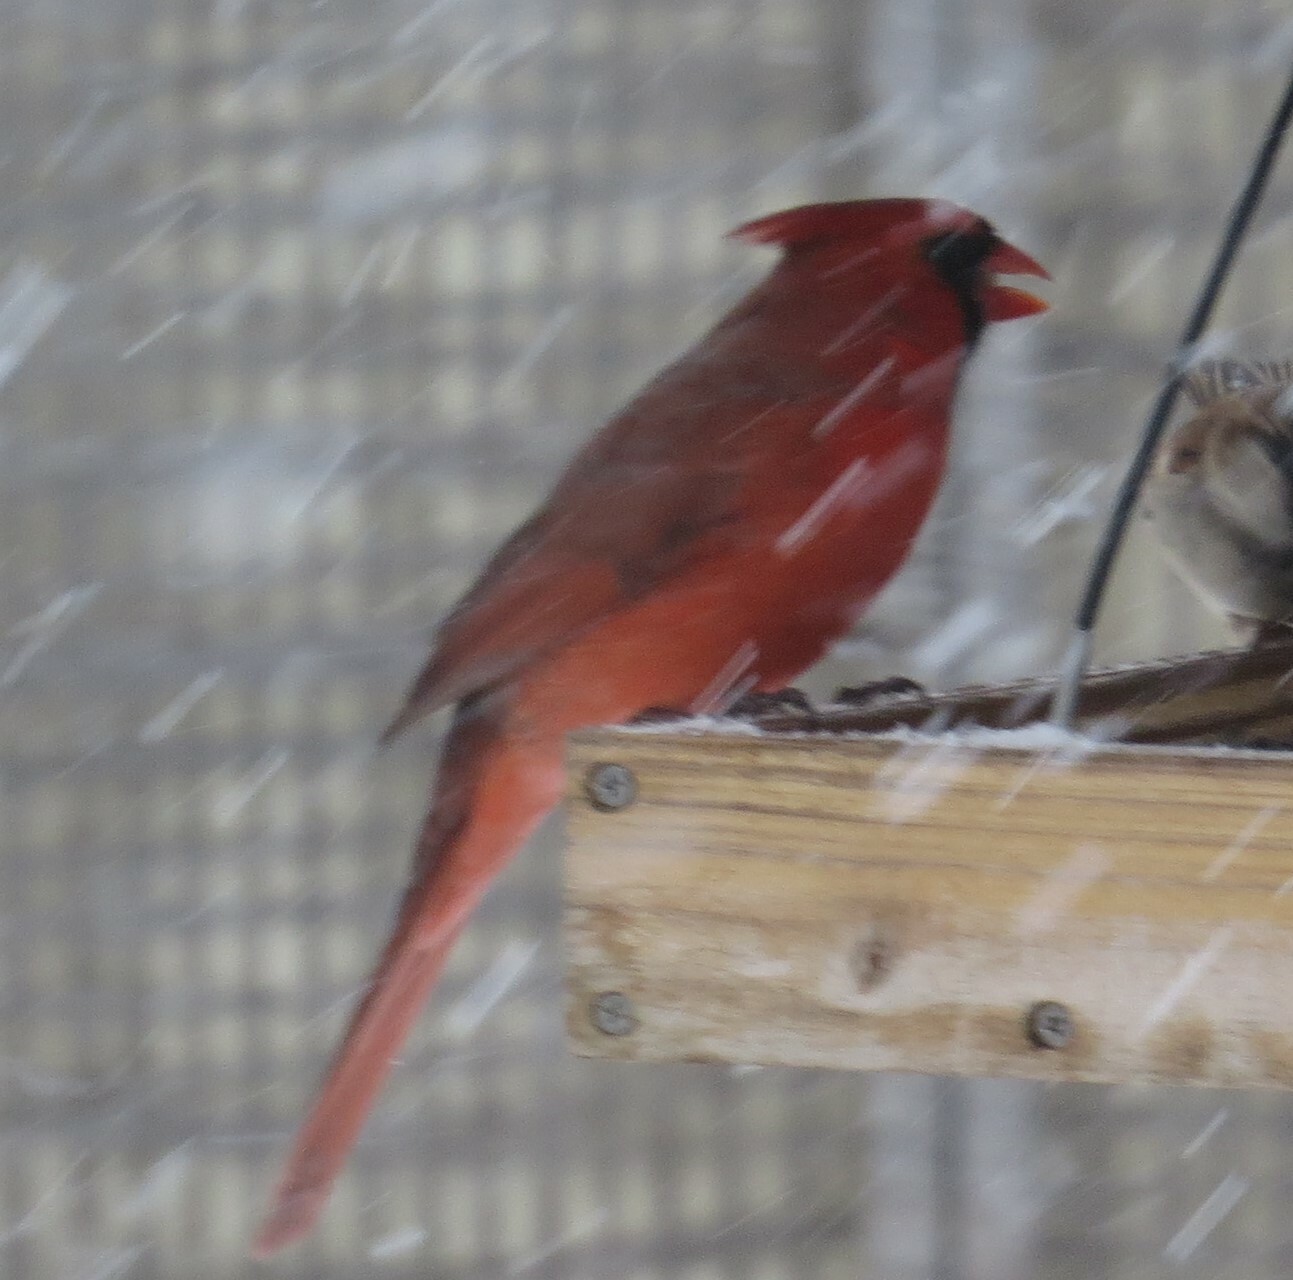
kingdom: Animalia
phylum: Chordata
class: Aves
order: Passeriformes
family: Cardinalidae
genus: Cardinalis
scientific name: Cardinalis cardinalis
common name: Northern cardinal
